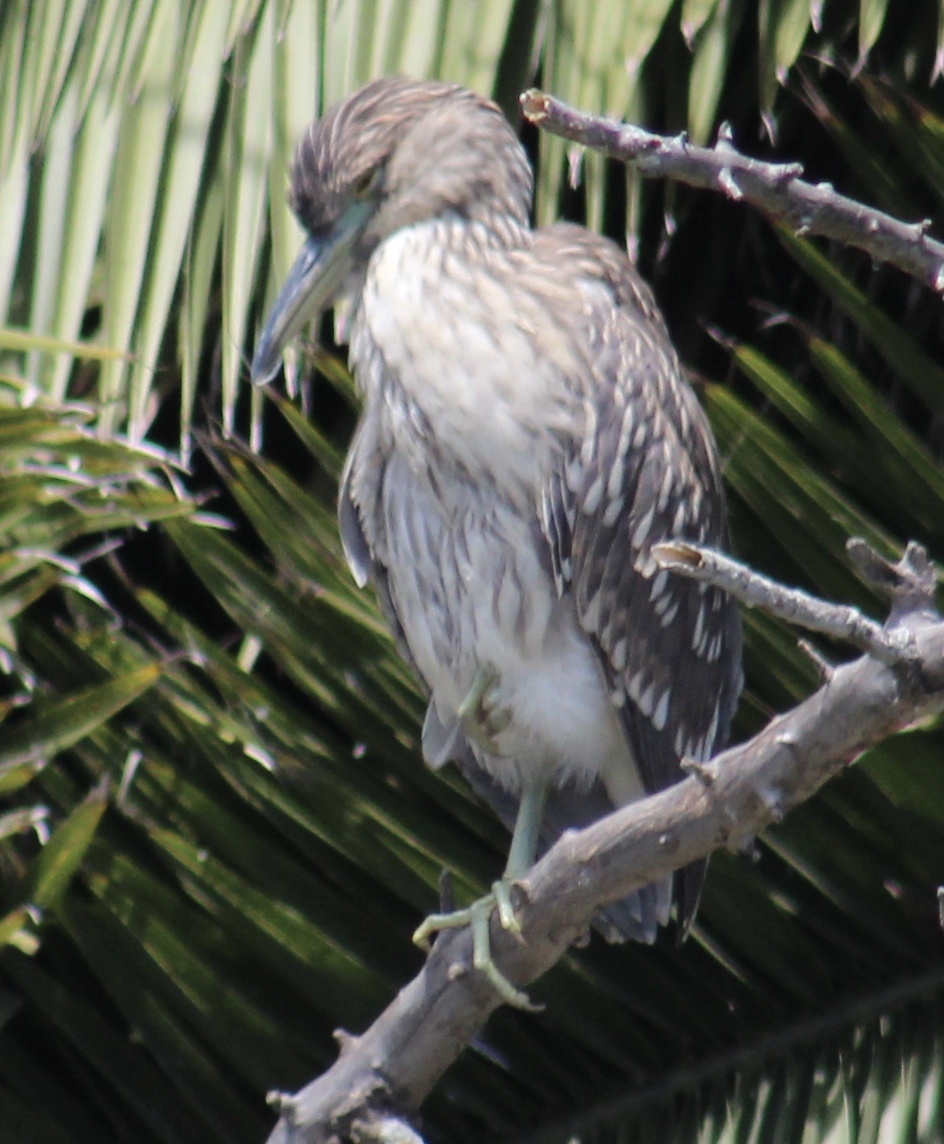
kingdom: Animalia
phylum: Chordata
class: Aves
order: Pelecaniformes
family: Ardeidae
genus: Nycticorax
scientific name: Nycticorax nycticorax
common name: Black-crowned night heron
